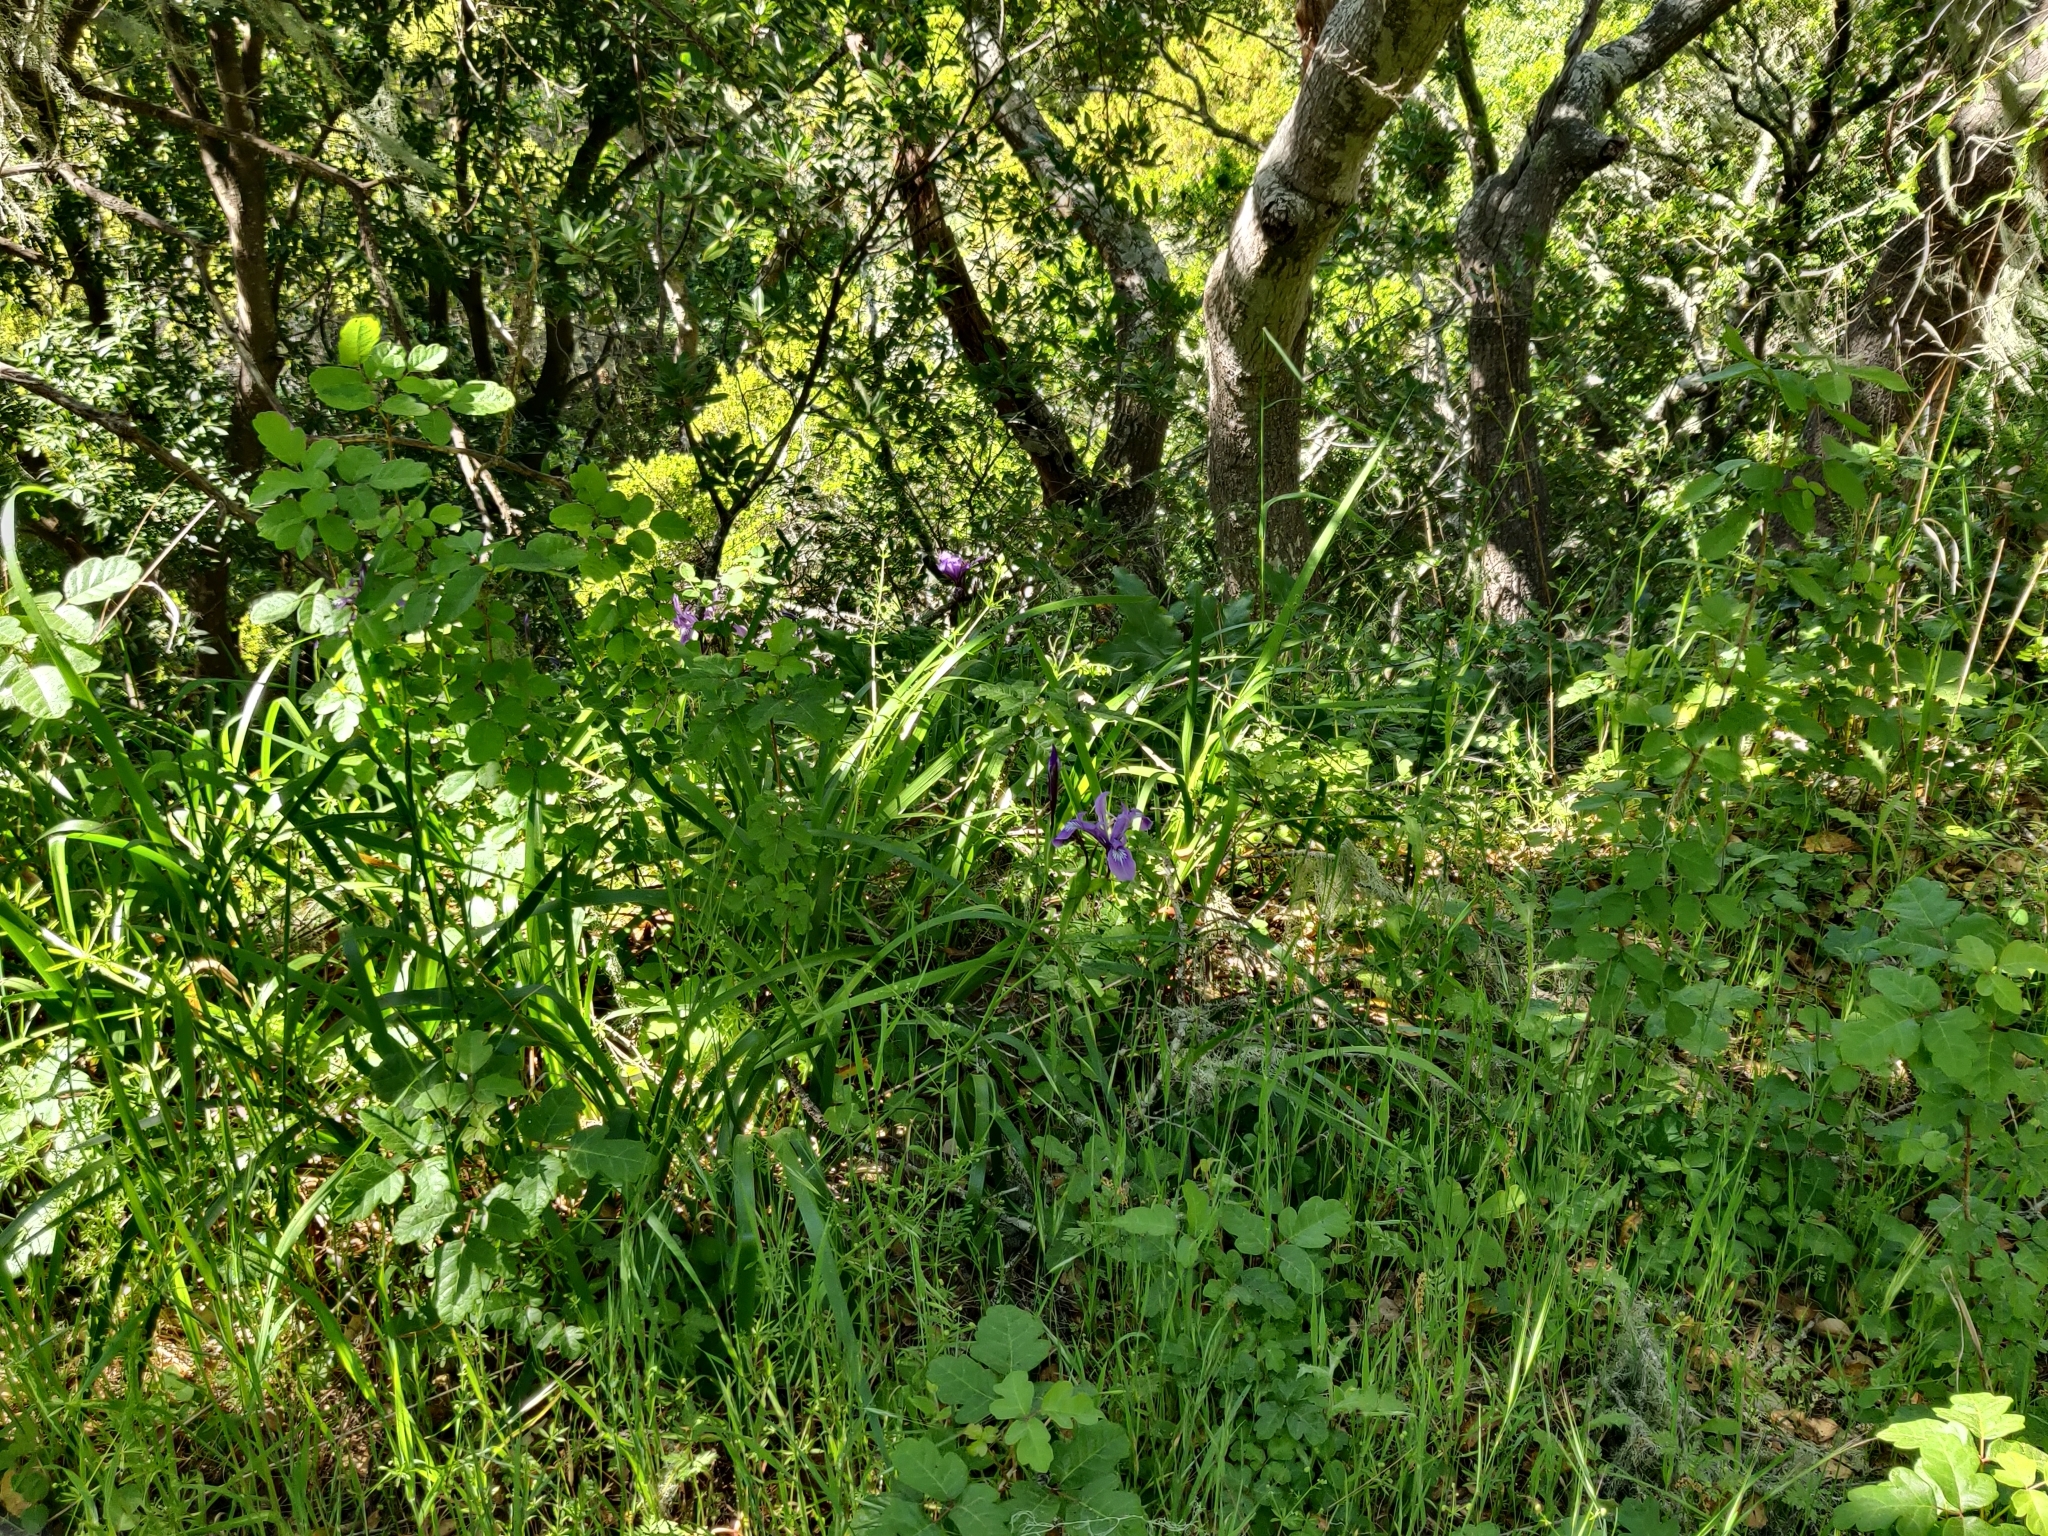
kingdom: Plantae
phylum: Tracheophyta
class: Liliopsida
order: Asparagales
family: Iridaceae
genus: Iris
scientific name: Iris douglasiana
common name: Marin iris
